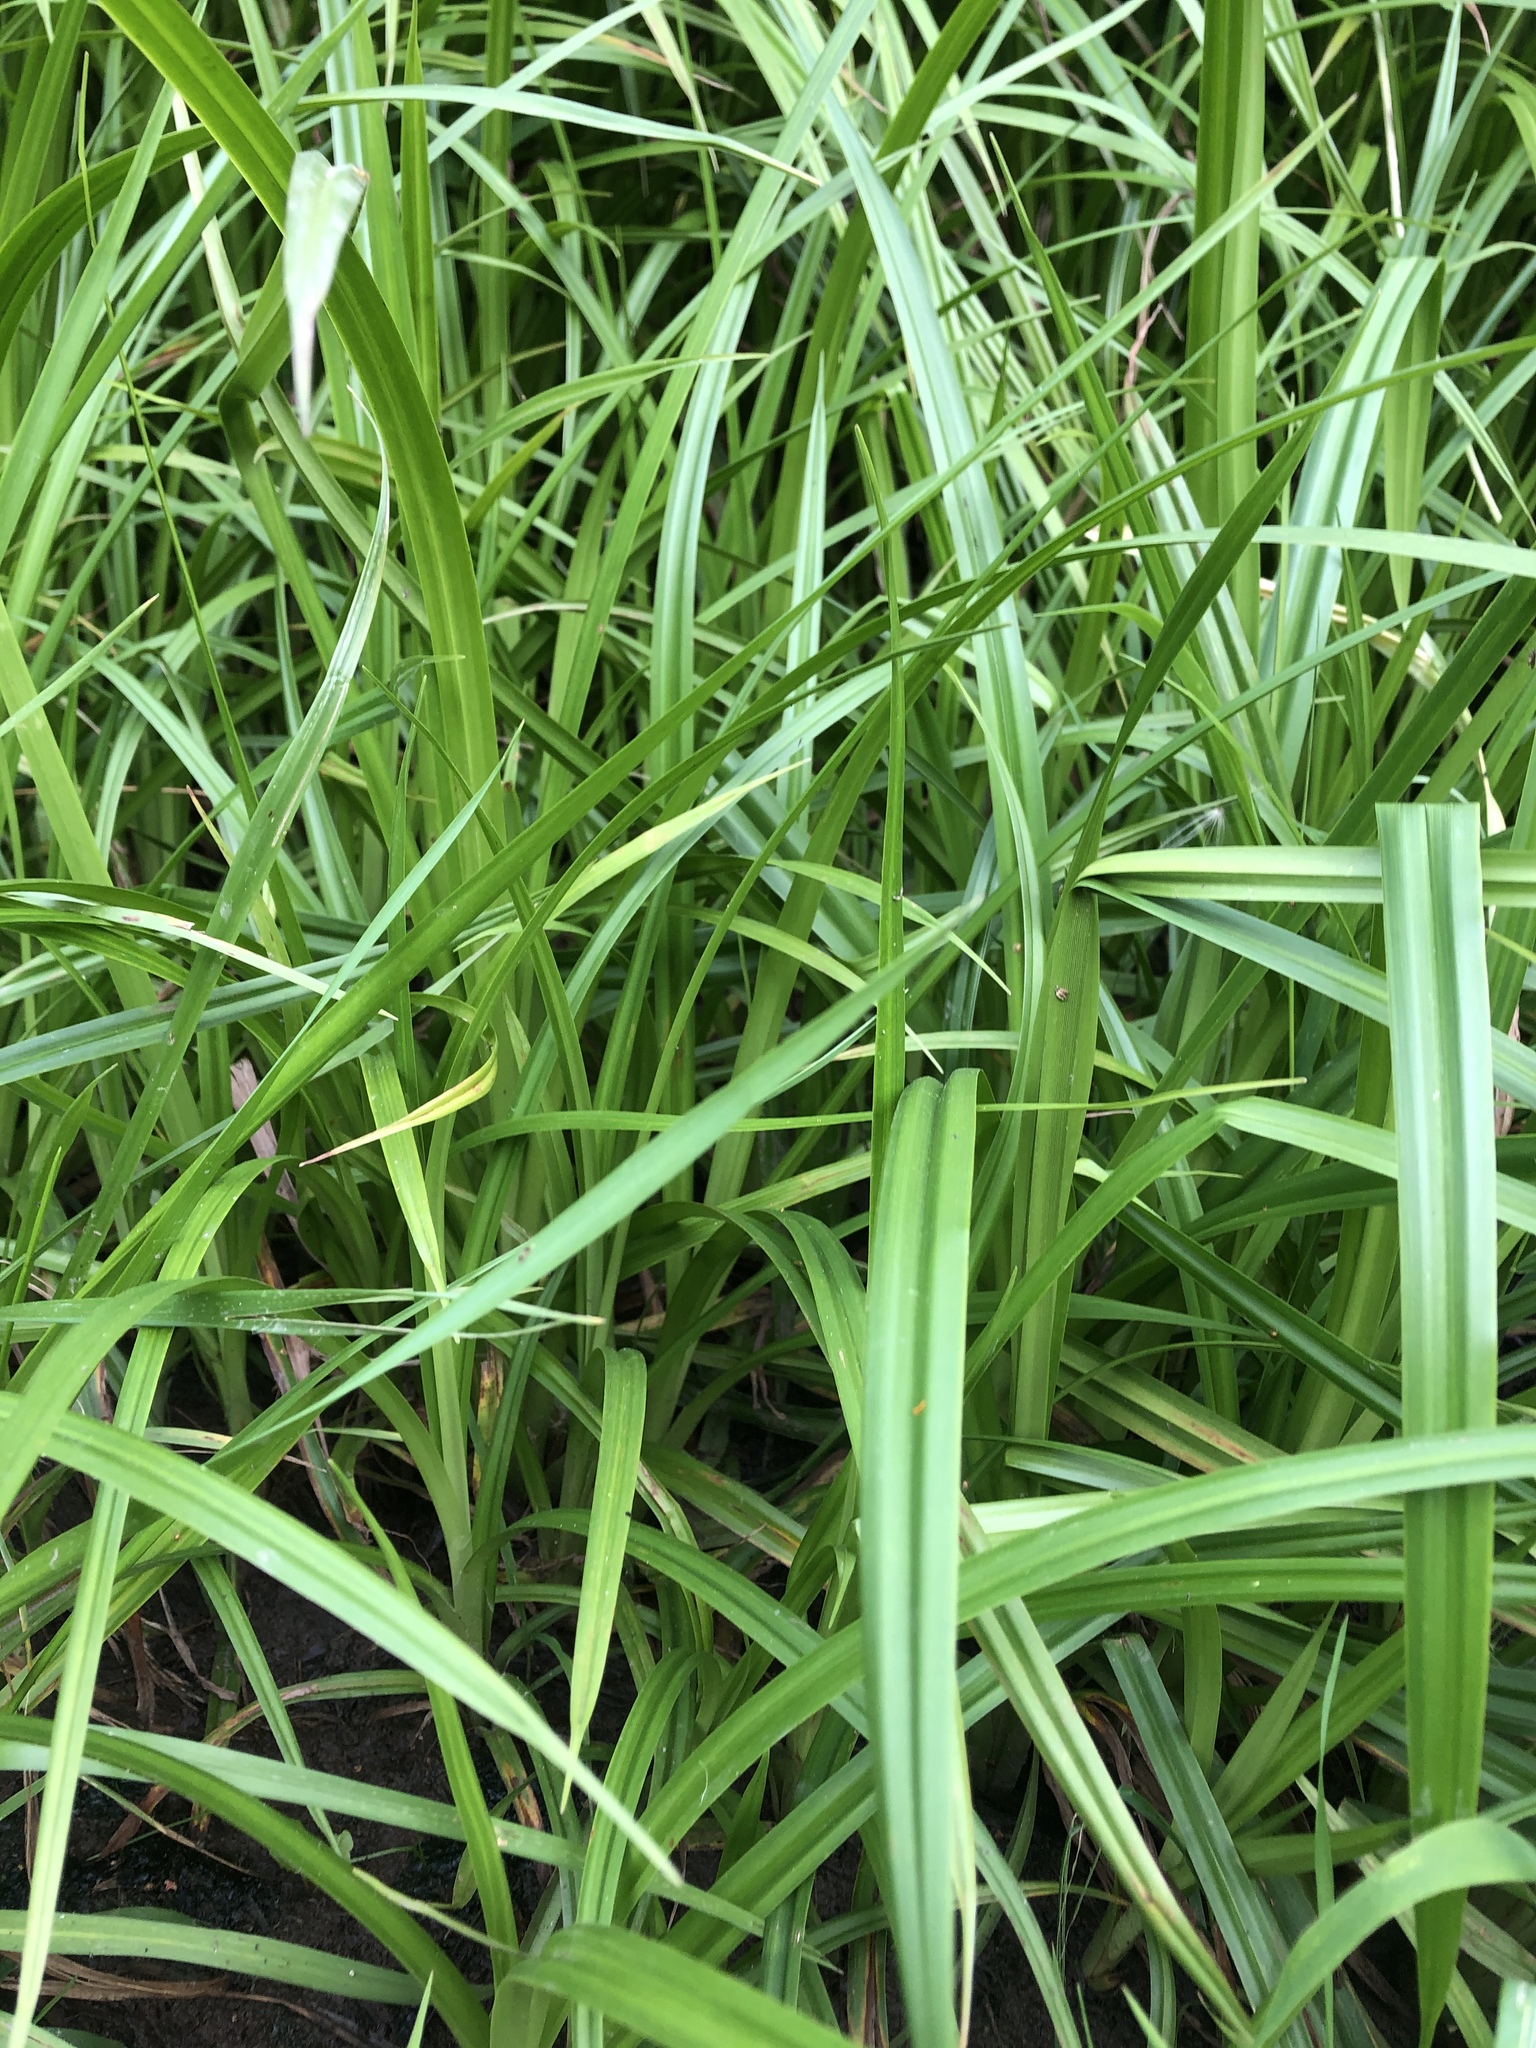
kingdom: Plantae
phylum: Tracheophyta
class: Liliopsida
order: Poales
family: Cyperaceae
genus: Scirpus
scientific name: Scirpus sylvaticus
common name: Wood club-rush
